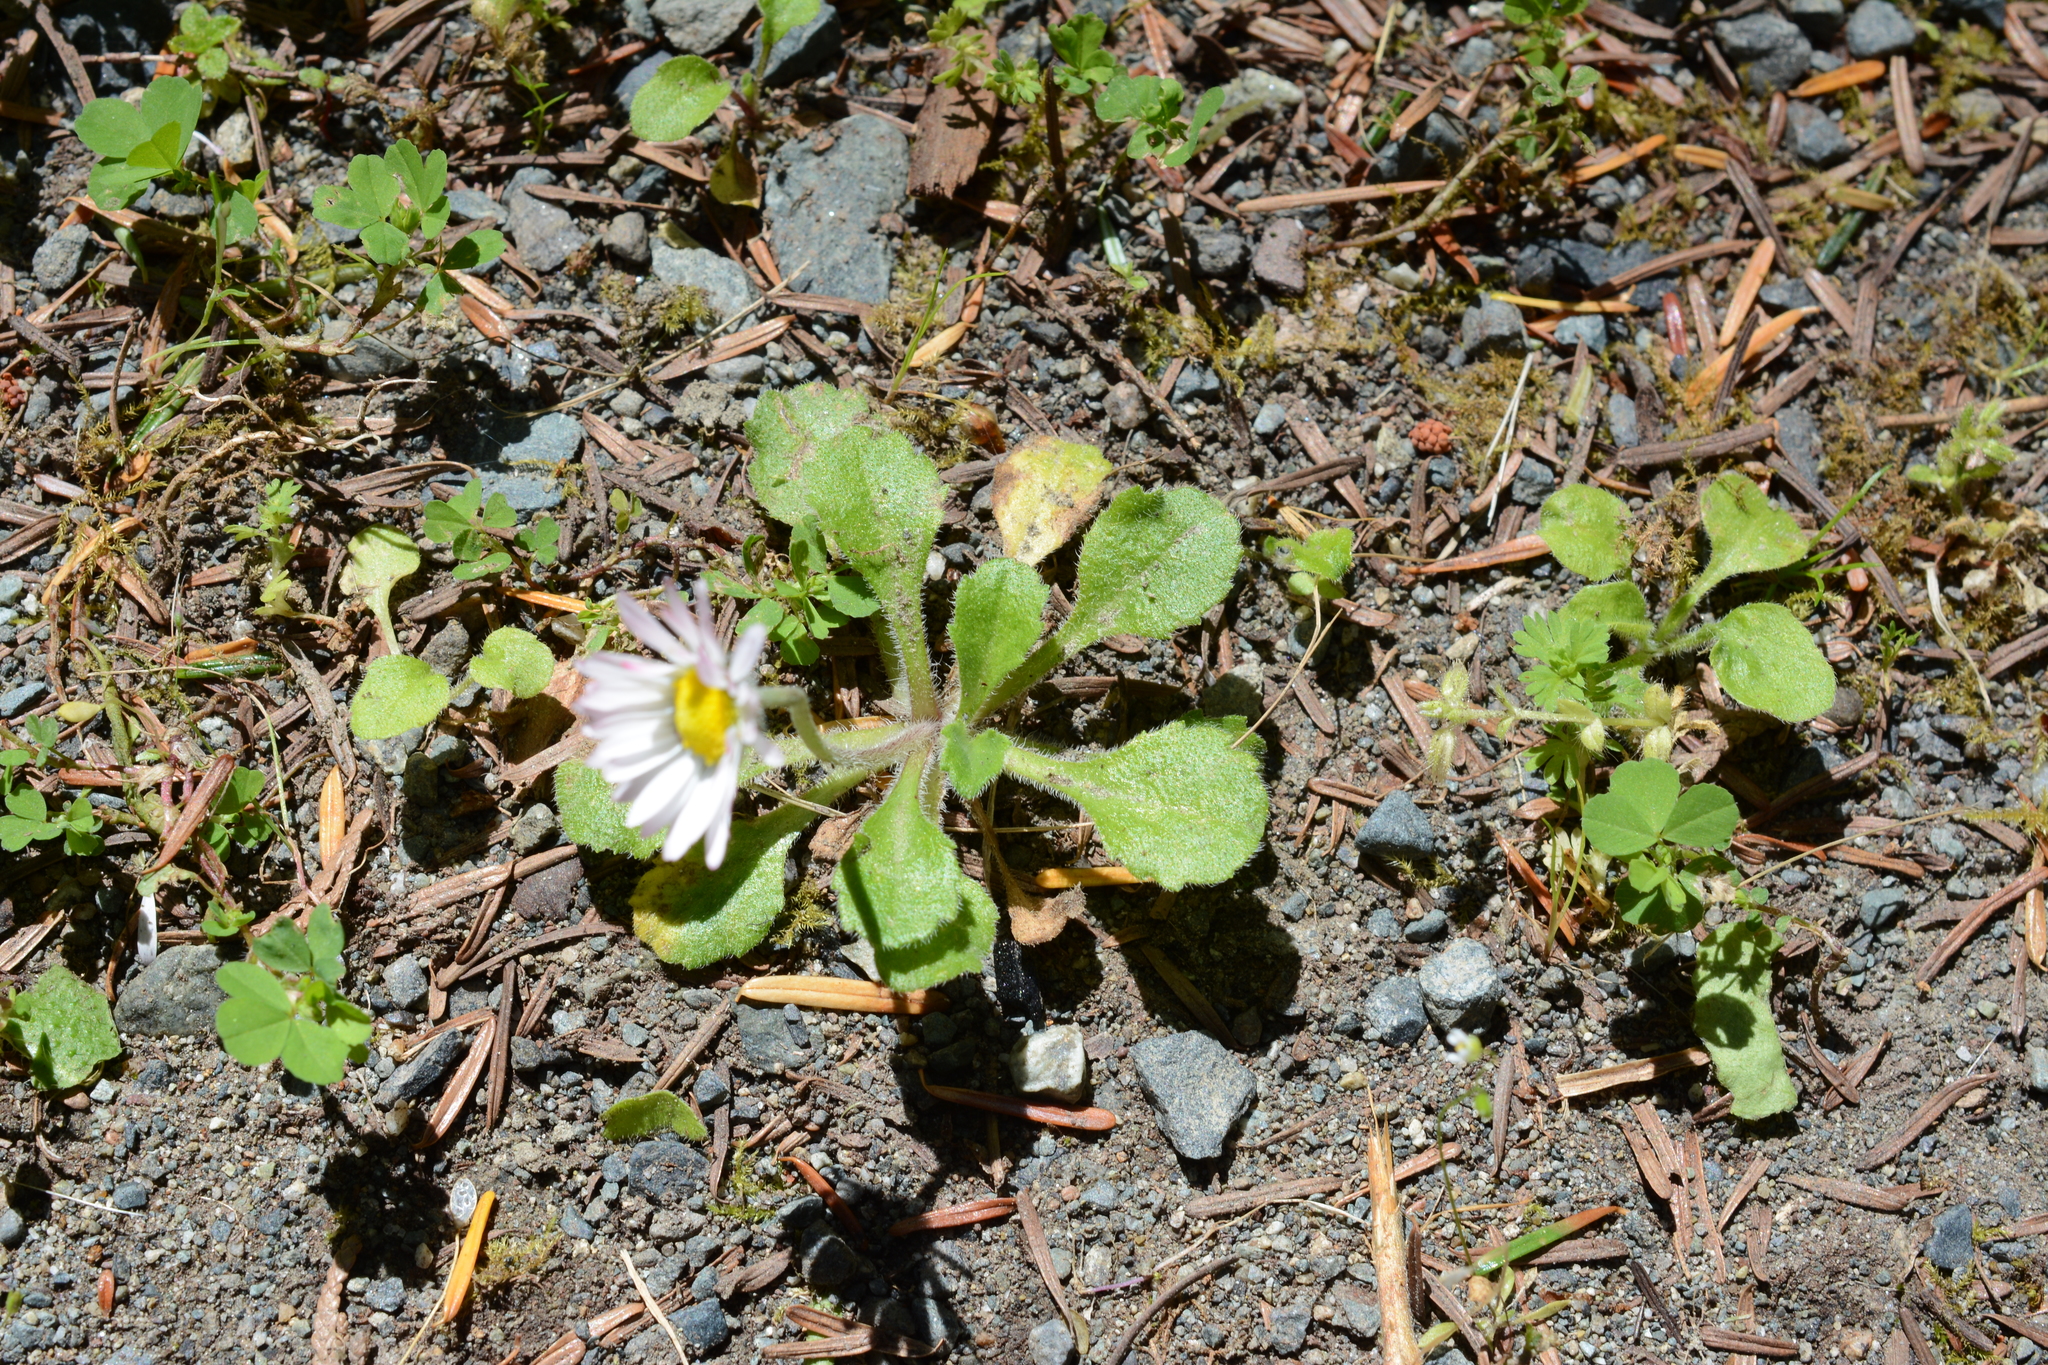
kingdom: Plantae
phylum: Tracheophyta
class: Magnoliopsida
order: Asterales
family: Asteraceae
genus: Bellis
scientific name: Bellis perennis
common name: Lawndaisy
